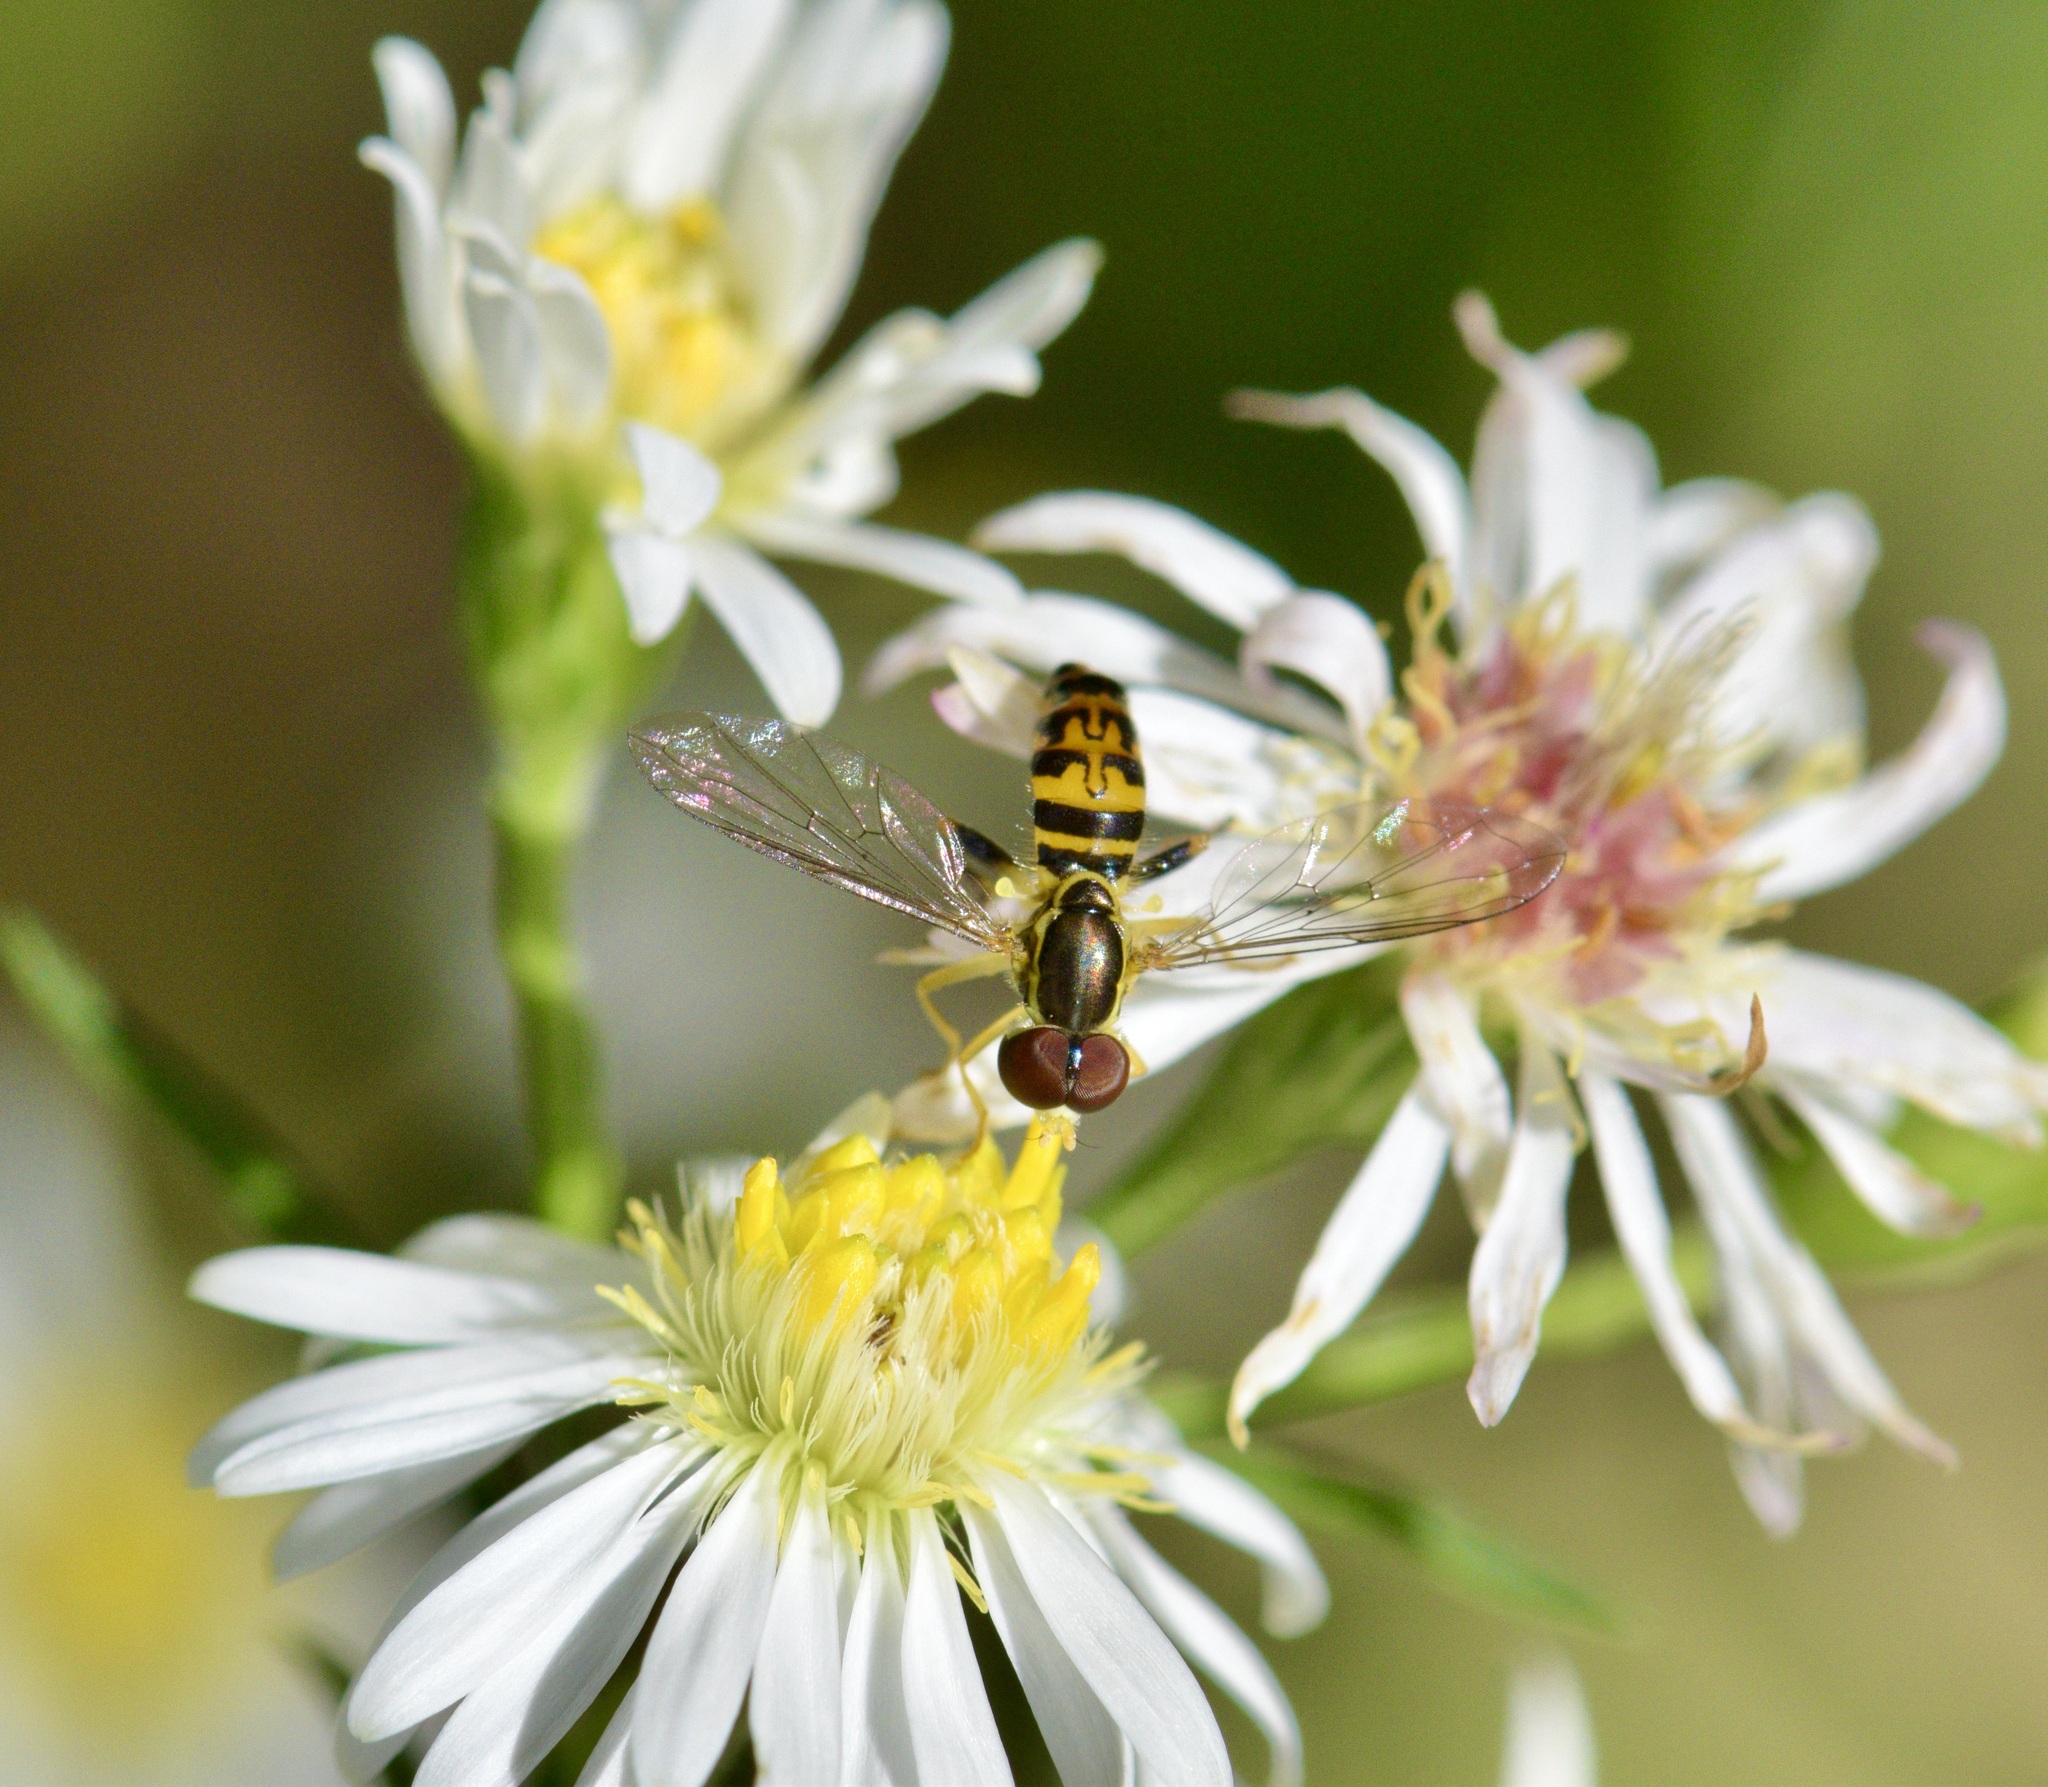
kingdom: Animalia
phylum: Arthropoda
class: Insecta
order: Diptera
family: Syrphidae
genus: Toxomerus
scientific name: Toxomerus geminatus
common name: Eastern calligrapher
